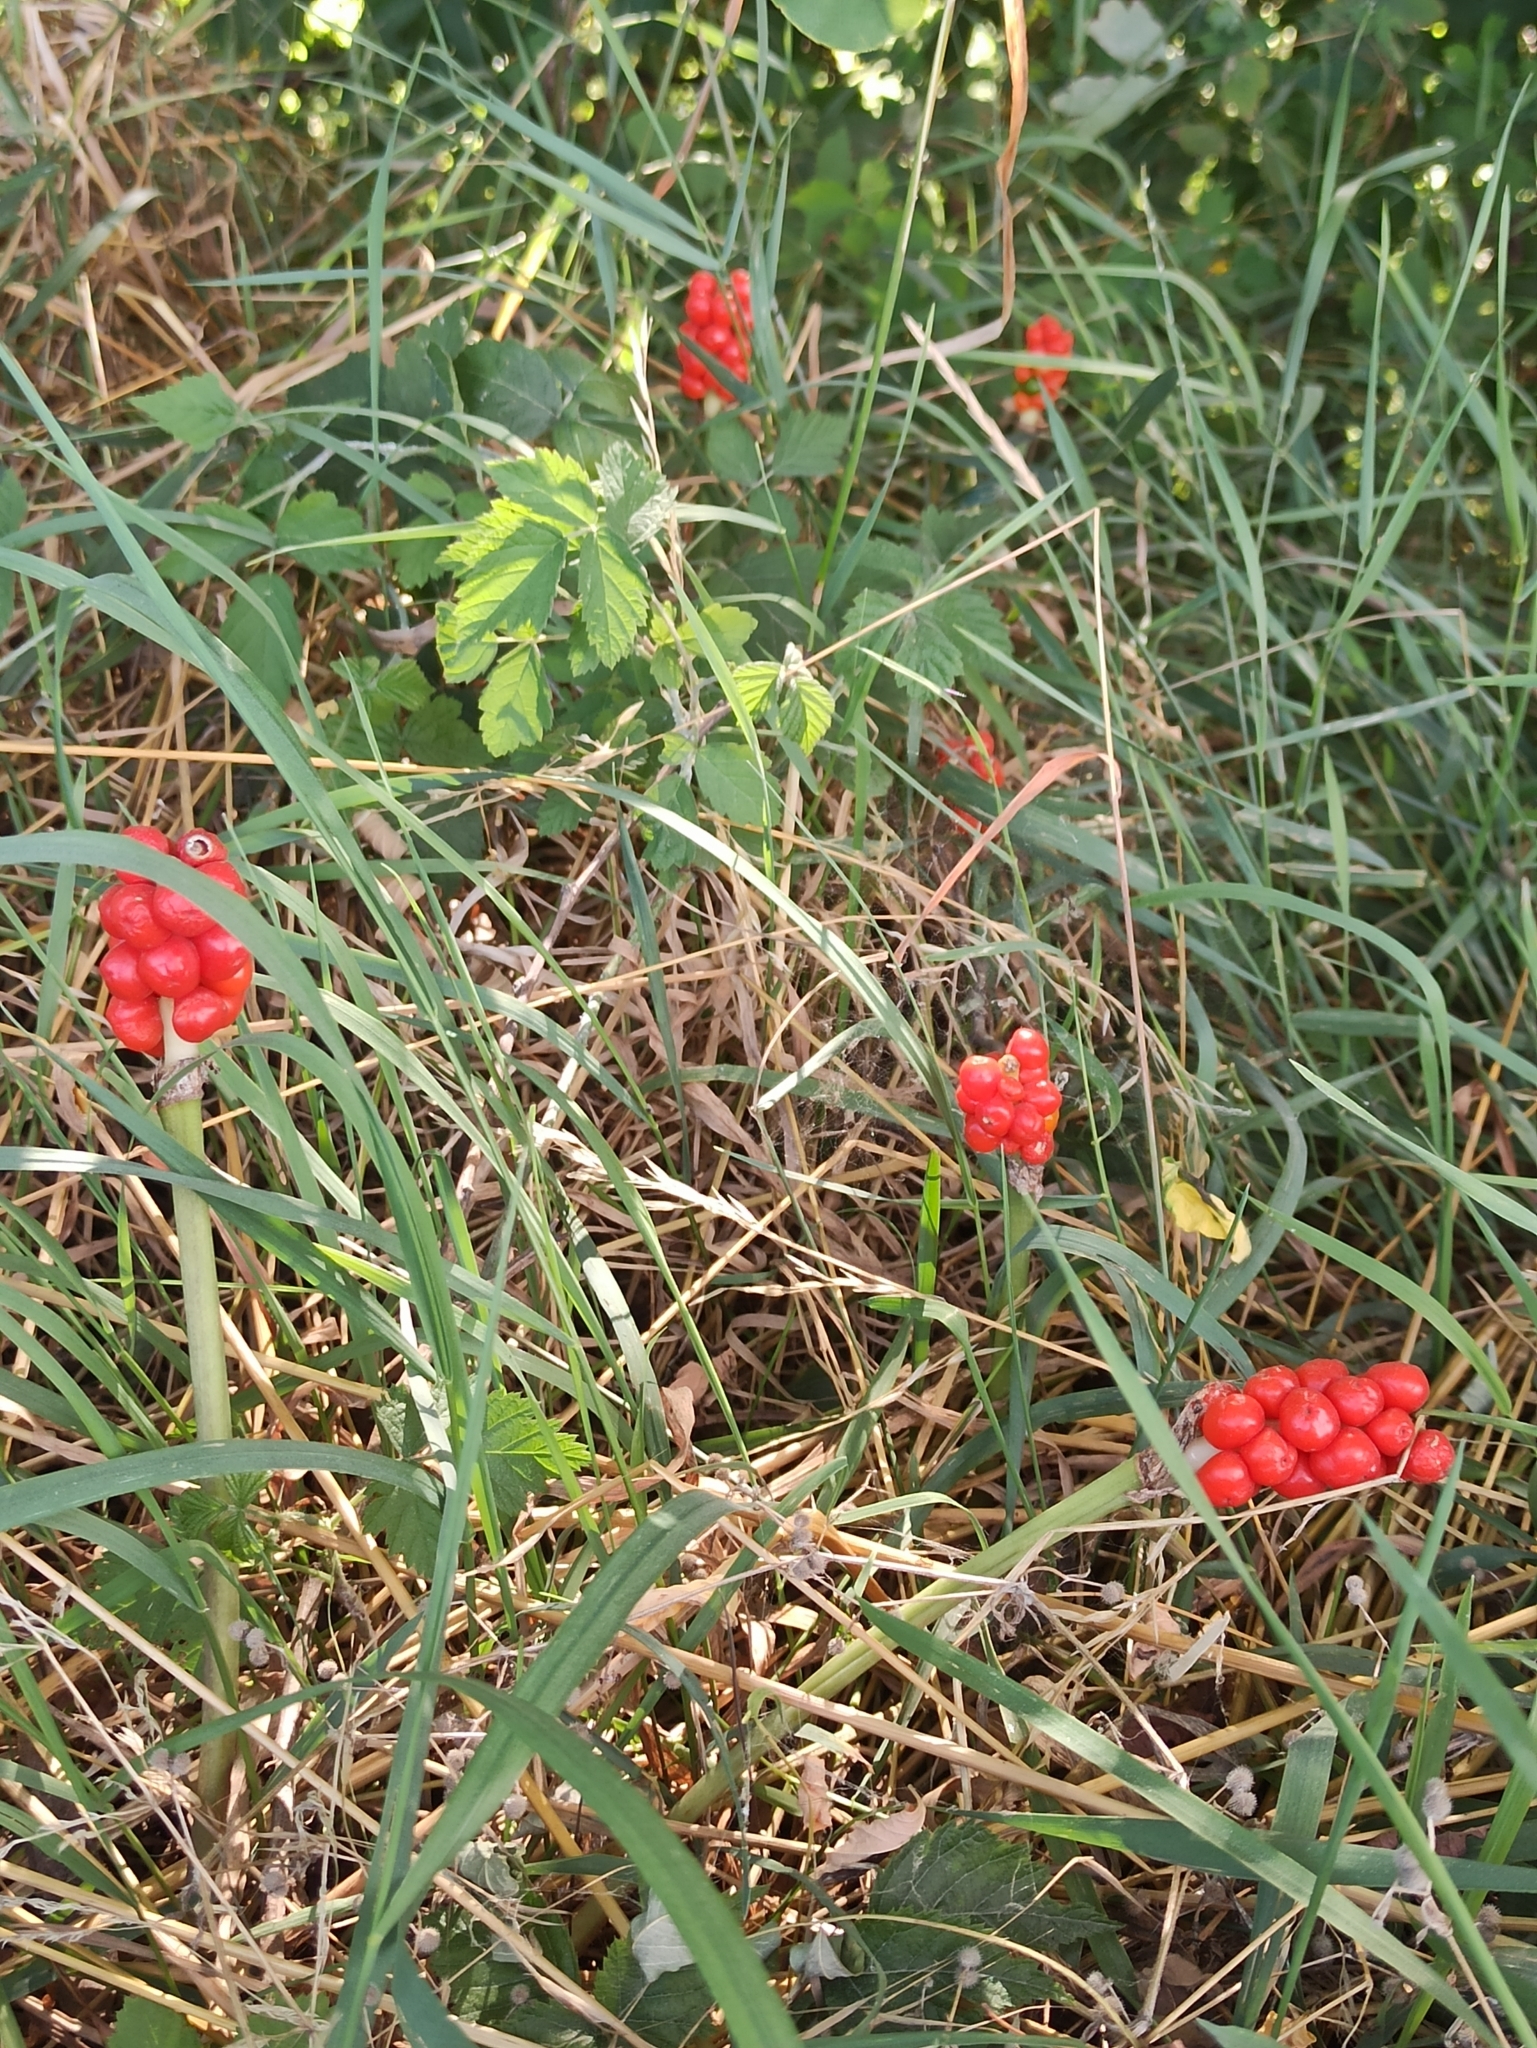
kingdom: Plantae
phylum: Tracheophyta
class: Liliopsida
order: Alismatales
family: Araceae
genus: Arum
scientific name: Arum maculatum
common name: Lords-and-ladies
